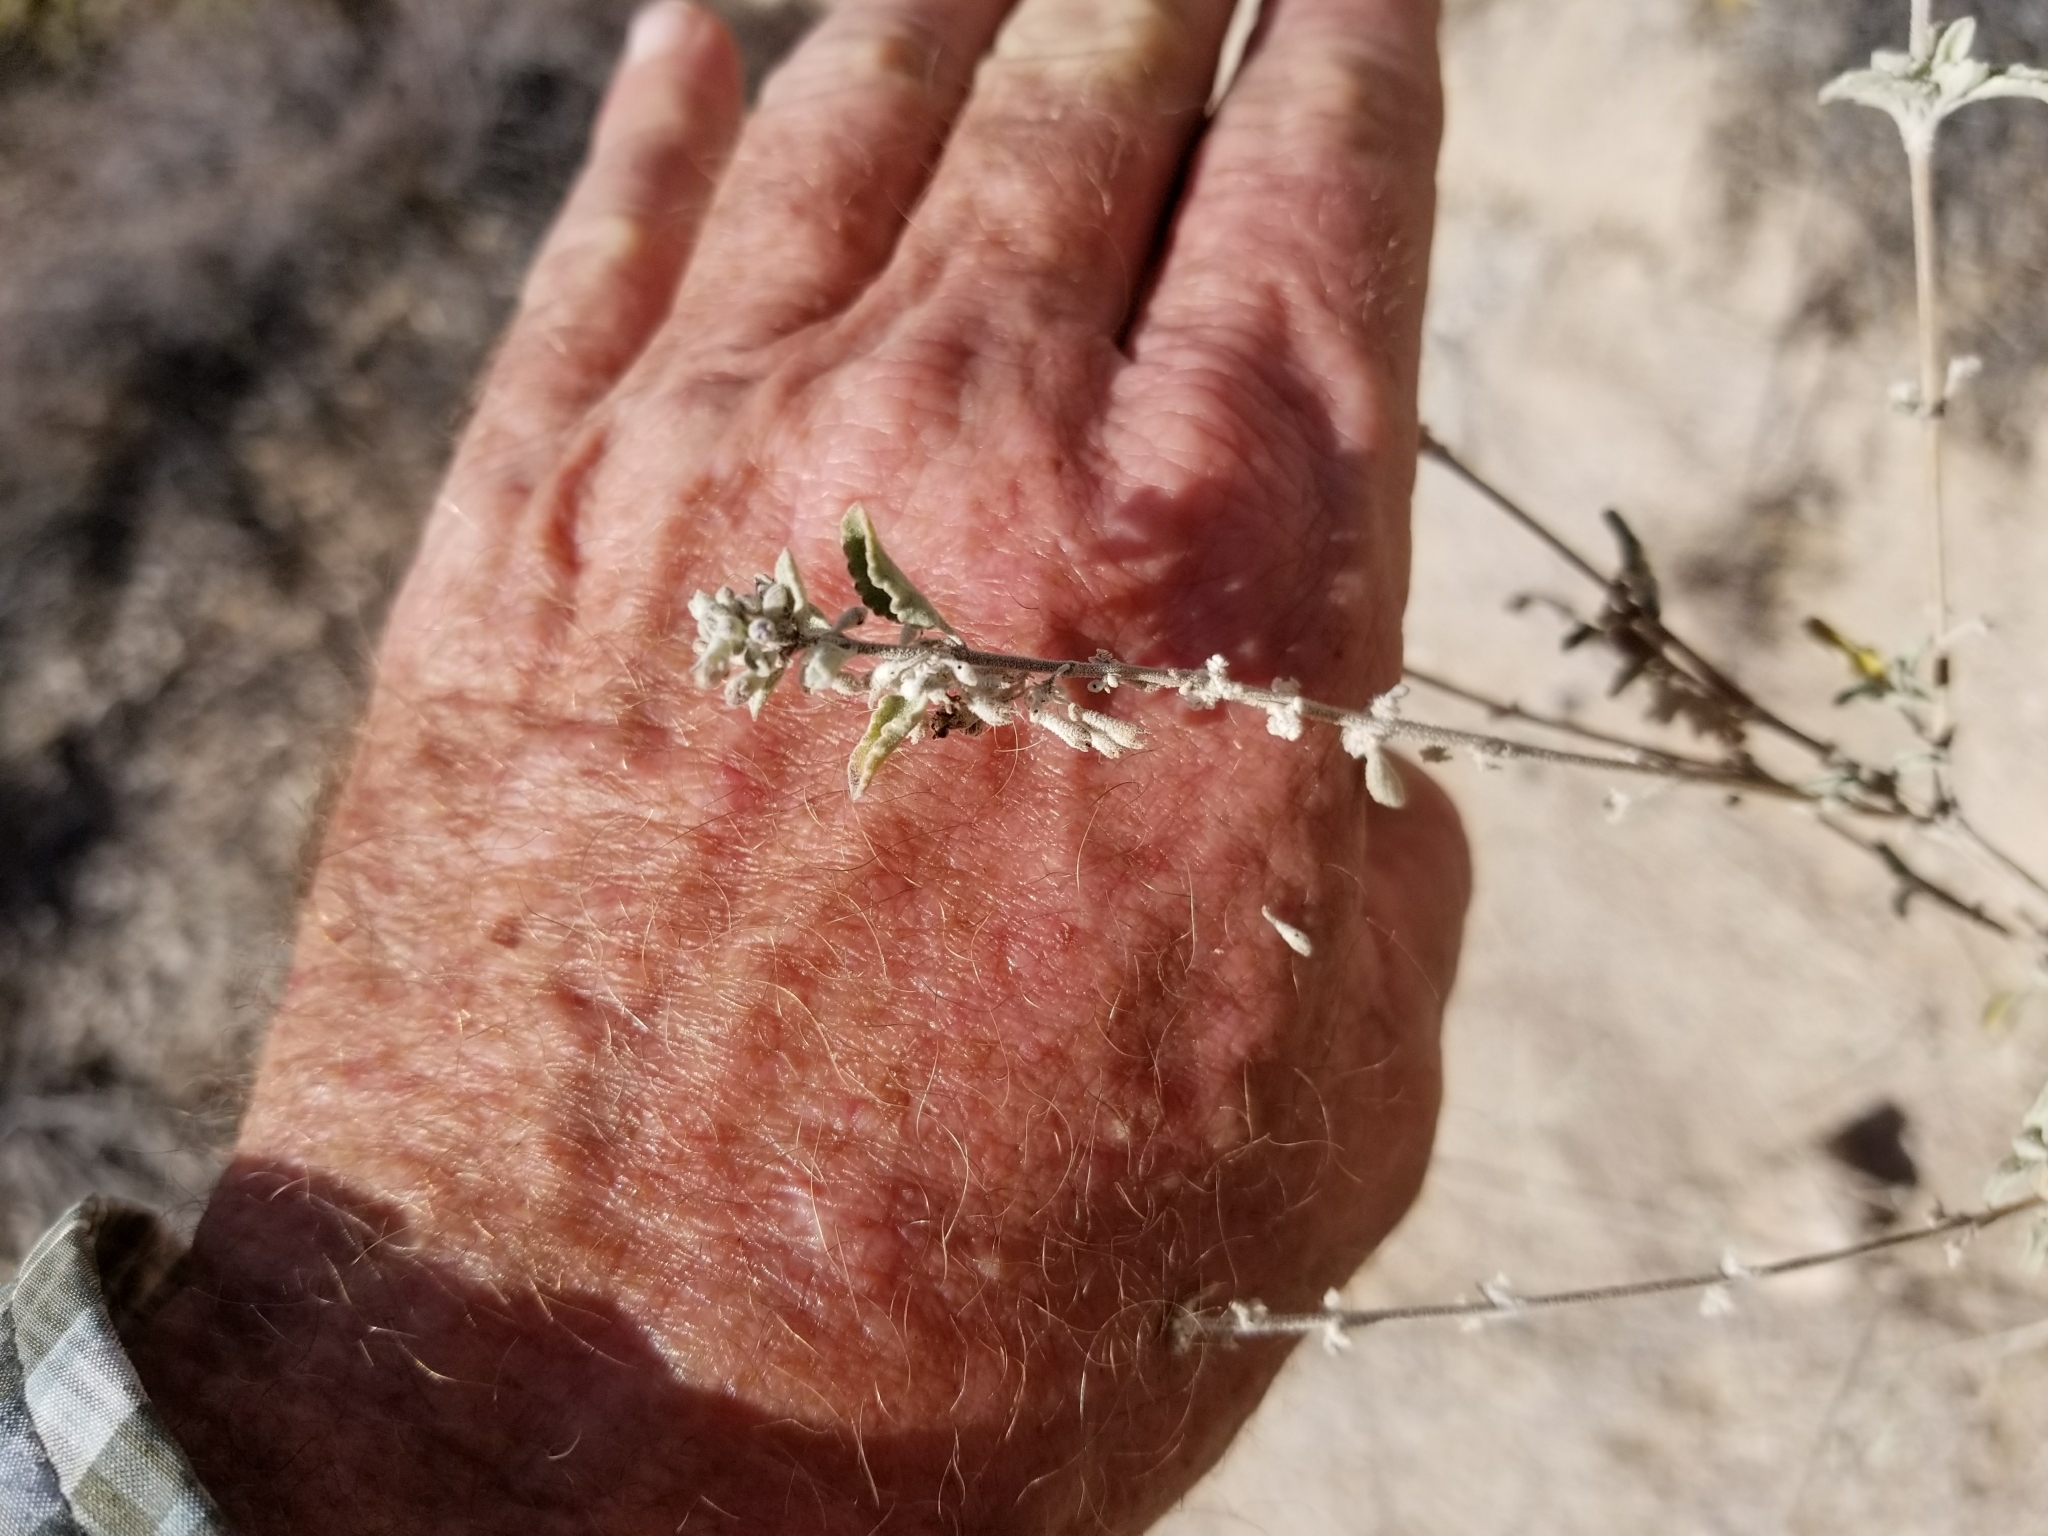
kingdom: Plantae
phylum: Tracheophyta
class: Magnoliopsida
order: Lamiales
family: Lamiaceae
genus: Condea
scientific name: Condea emoryi
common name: Chia
